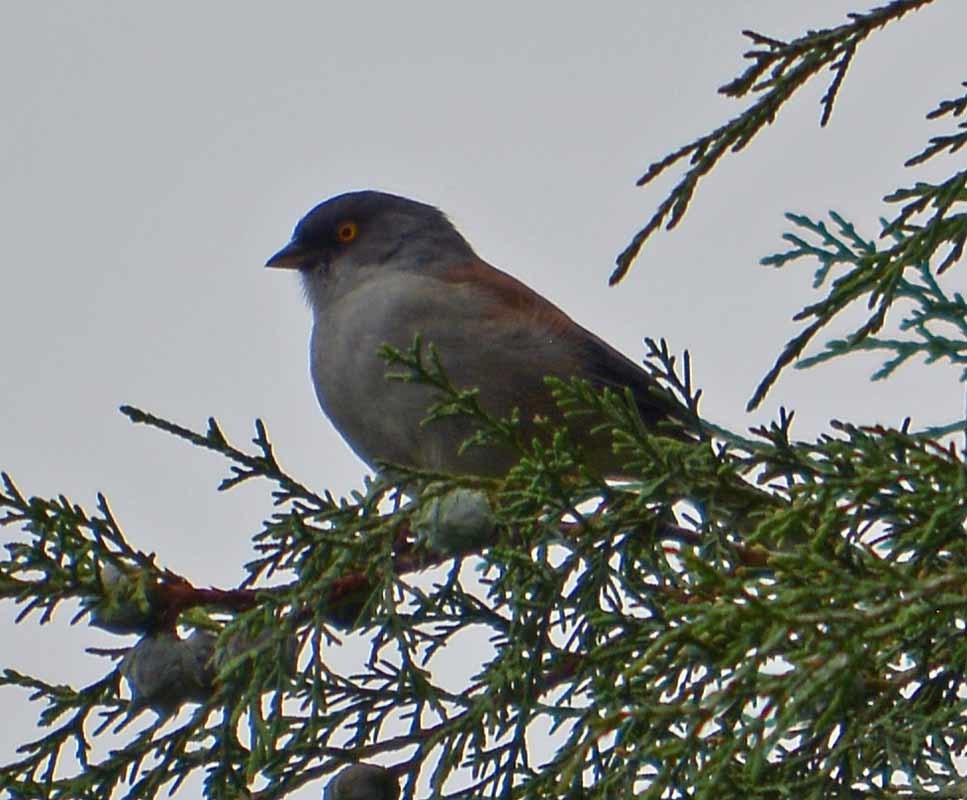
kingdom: Animalia
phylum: Chordata
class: Aves
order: Passeriformes
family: Passerellidae
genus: Junco
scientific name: Junco phaeonotus
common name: Yellow-eyed junco
